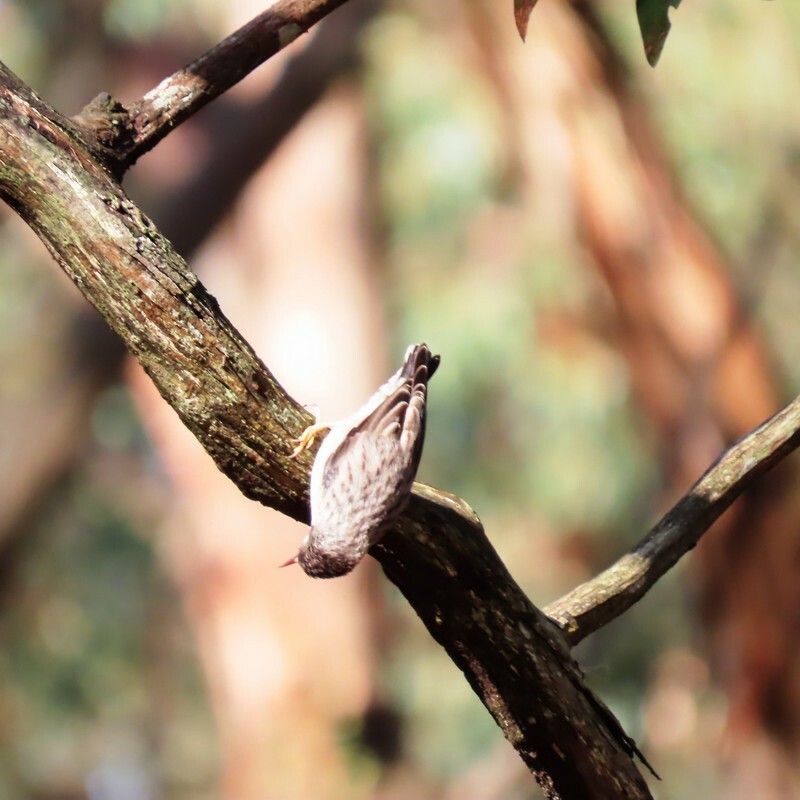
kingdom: Animalia
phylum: Chordata
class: Aves
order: Passeriformes
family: Neosittidae
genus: Daphoenositta
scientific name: Daphoenositta chrysoptera
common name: Varied sittella
